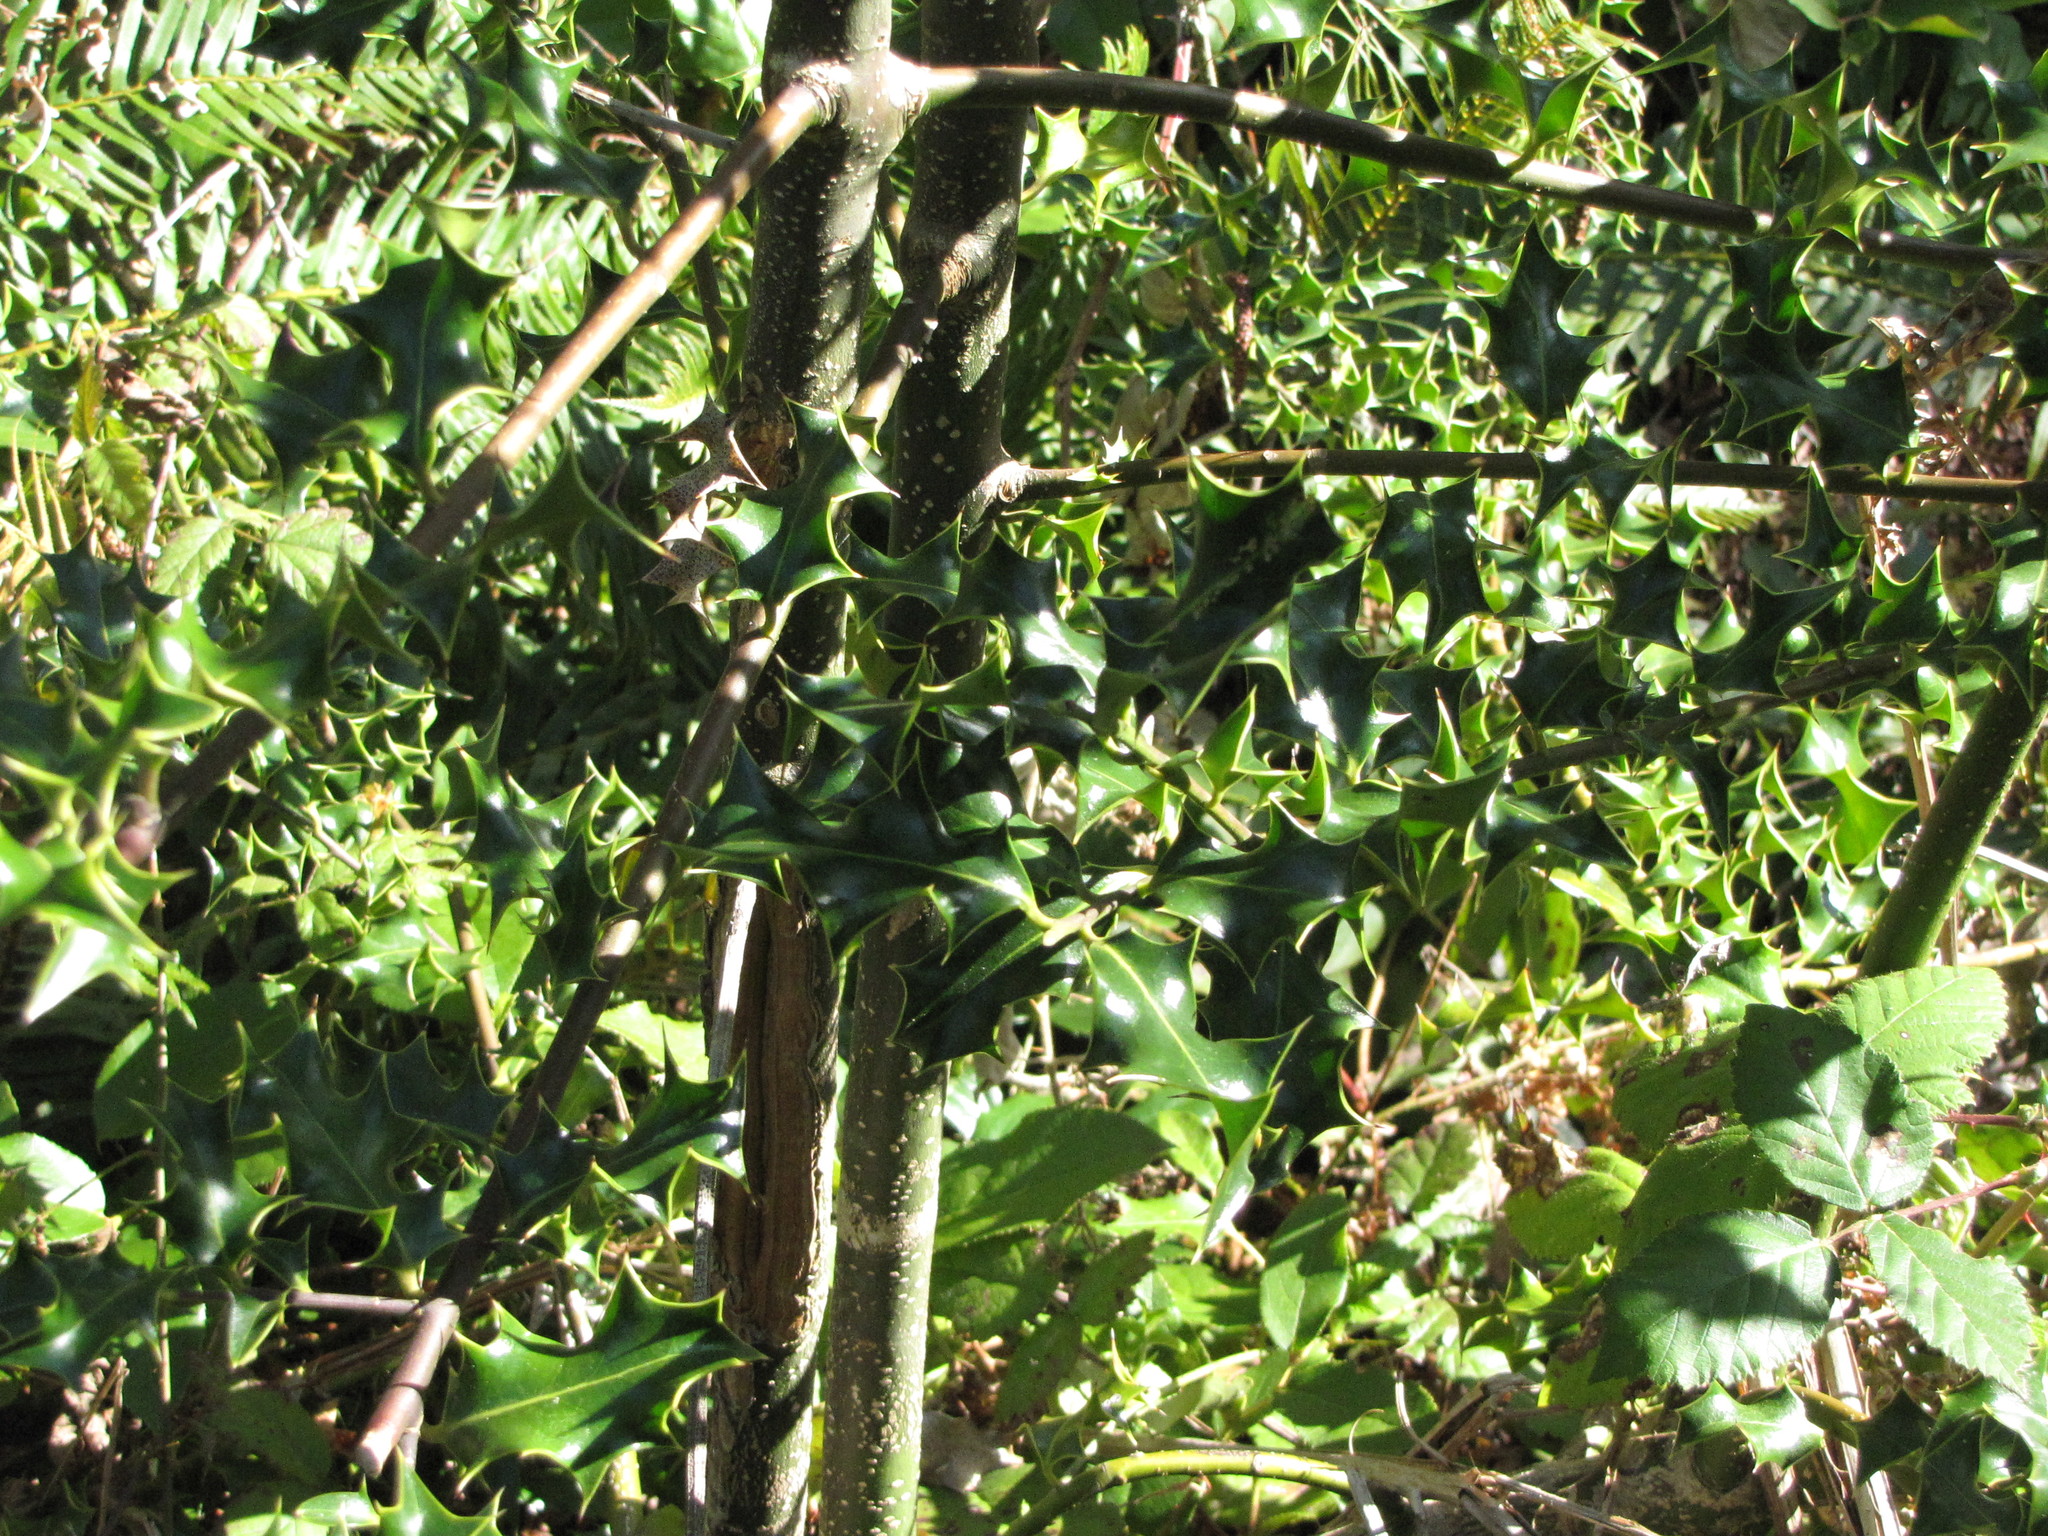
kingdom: Plantae
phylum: Tracheophyta
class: Magnoliopsida
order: Aquifoliales
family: Aquifoliaceae
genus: Ilex
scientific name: Ilex aquifolium
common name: English holly
